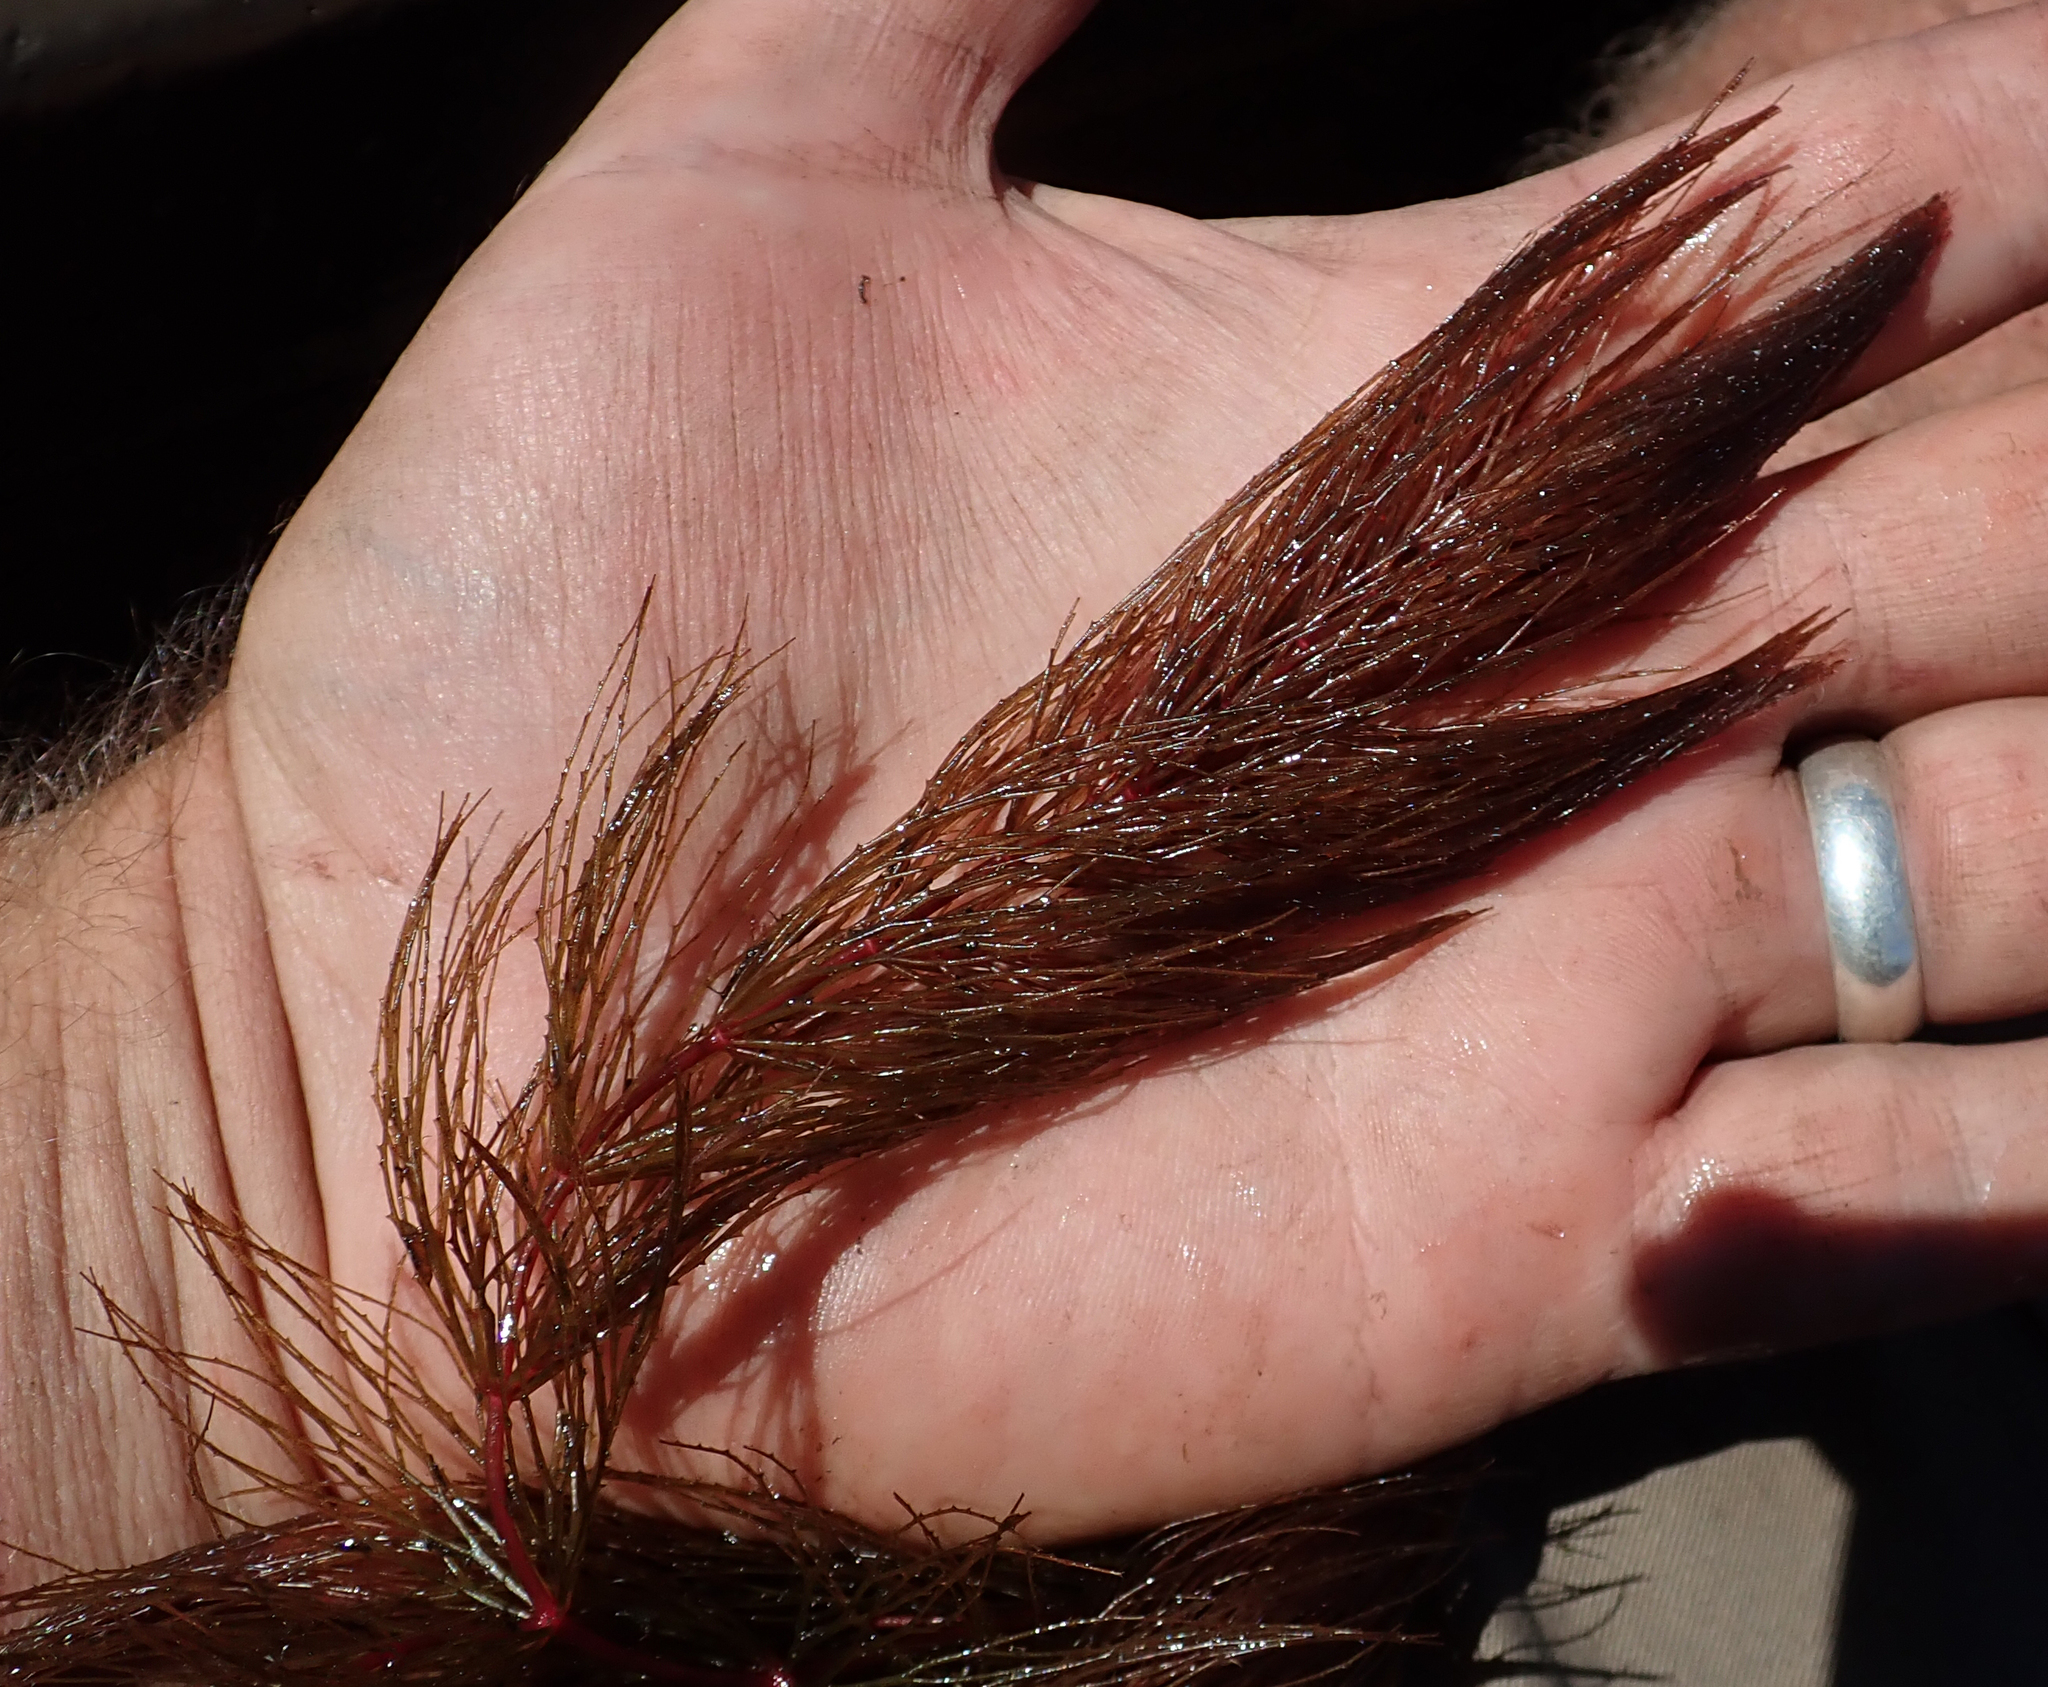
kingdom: Plantae
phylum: Tracheophyta
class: Magnoliopsida
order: Ceratophyllales
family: Ceratophyllaceae
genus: Ceratophyllum
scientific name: Ceratophyllum demersum
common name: Rigid hornwort
